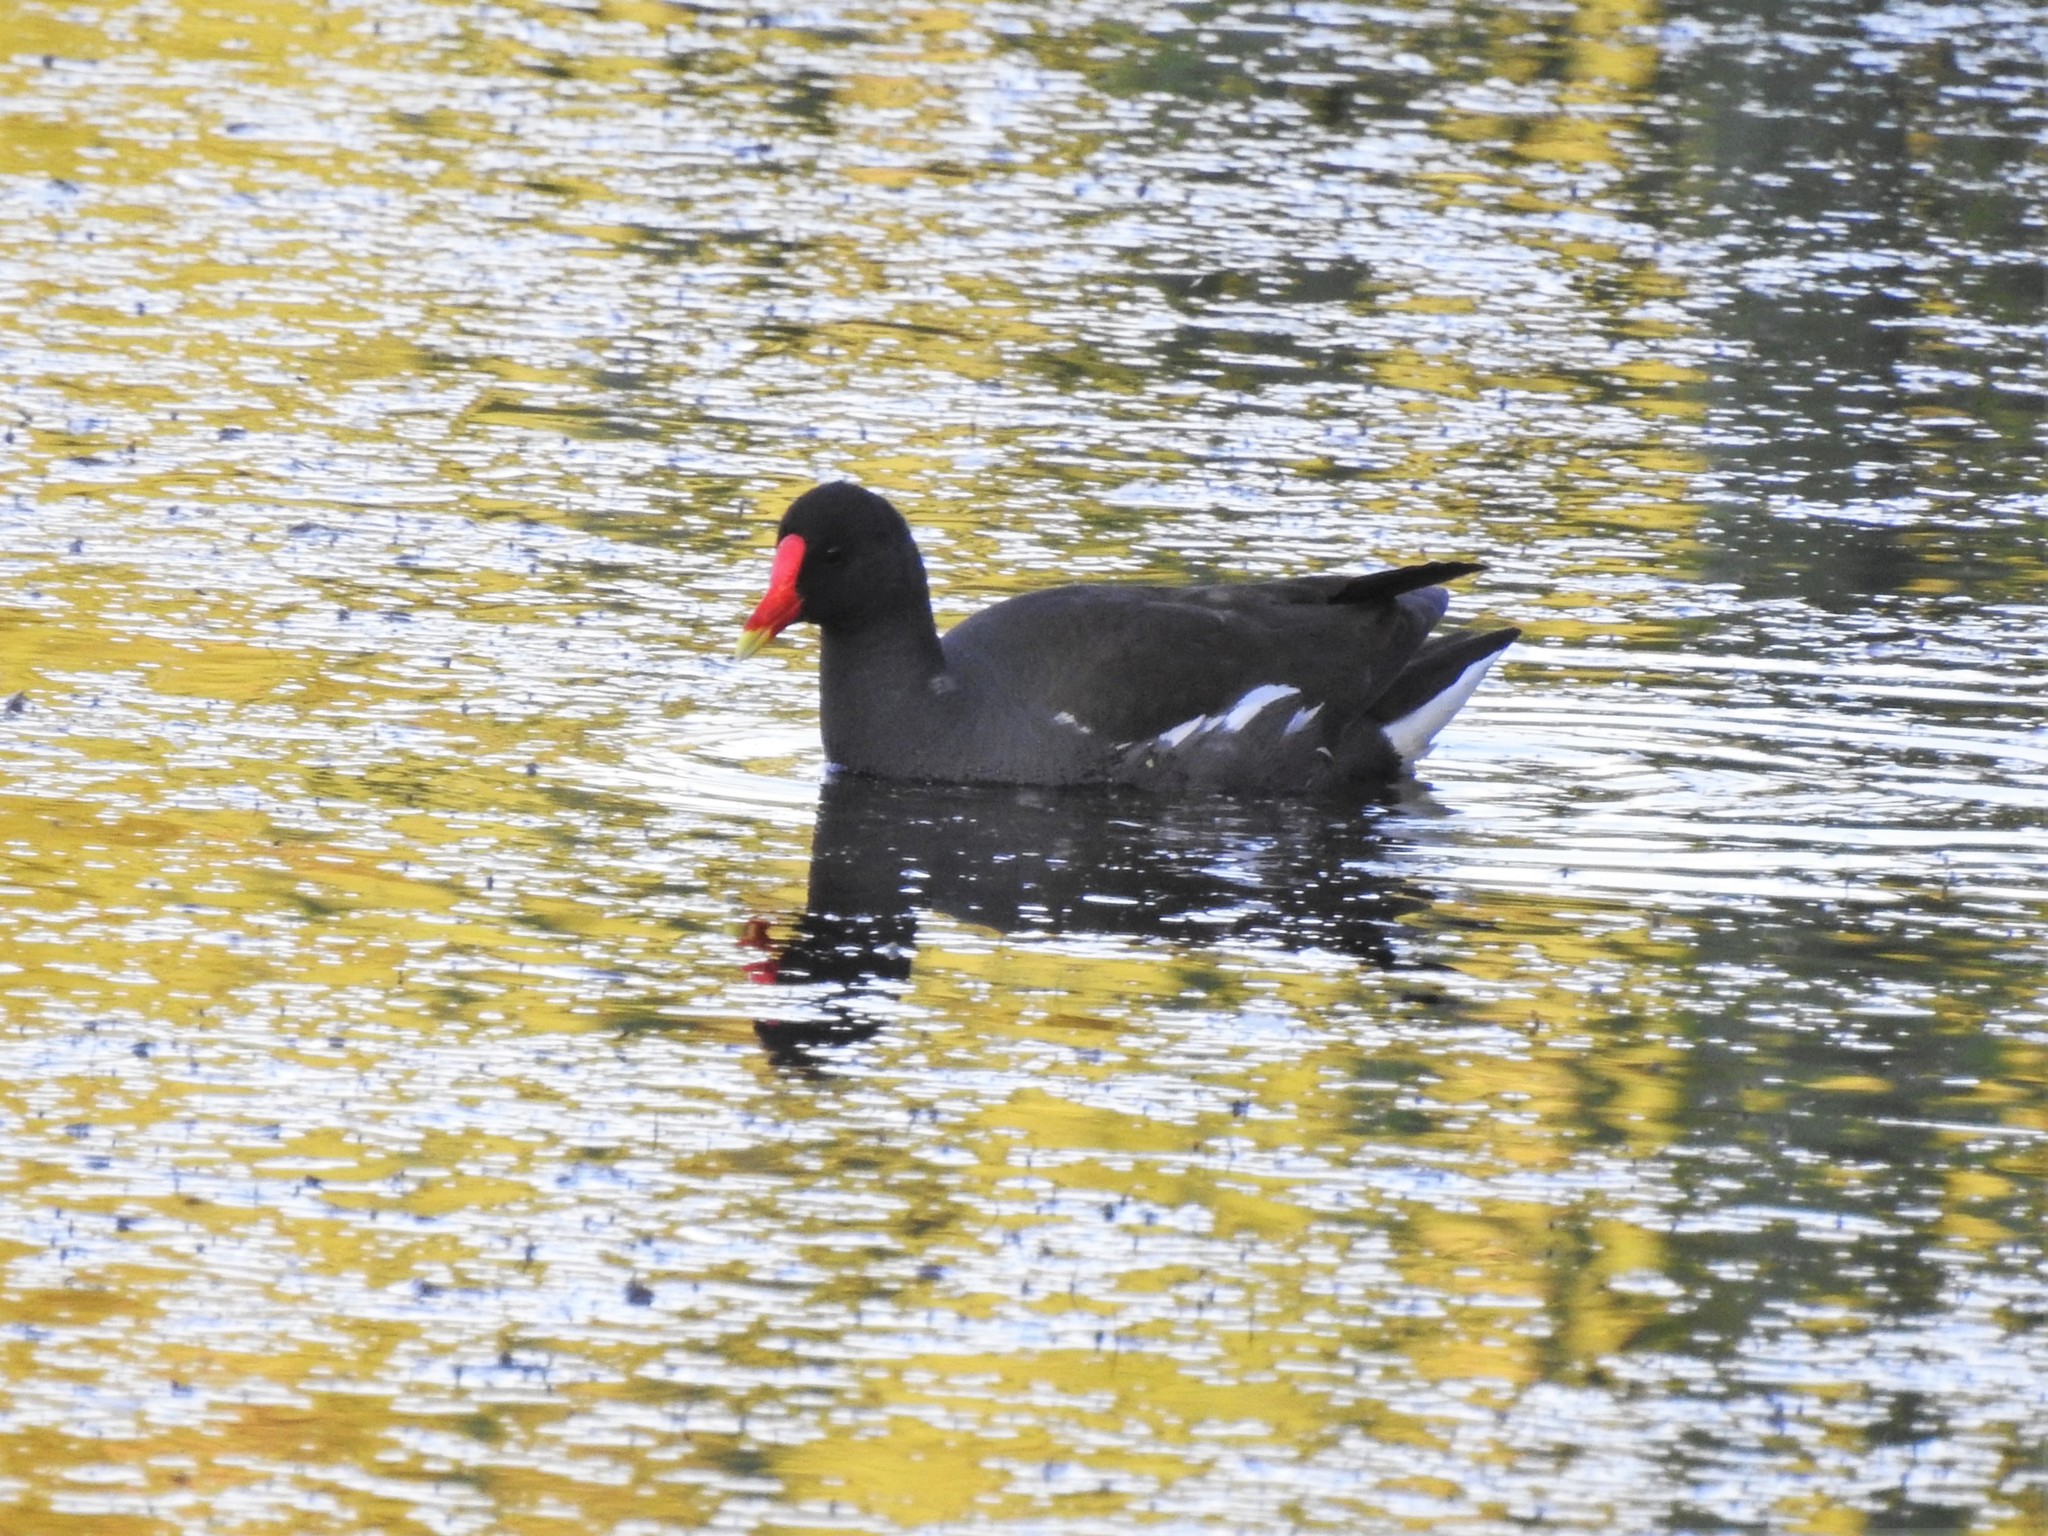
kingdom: Animalia
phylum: Chordata
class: Aves
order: Gruiformes
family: Rallidae
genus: Gallinula
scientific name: Gallinula chloropus
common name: Common moorhen
